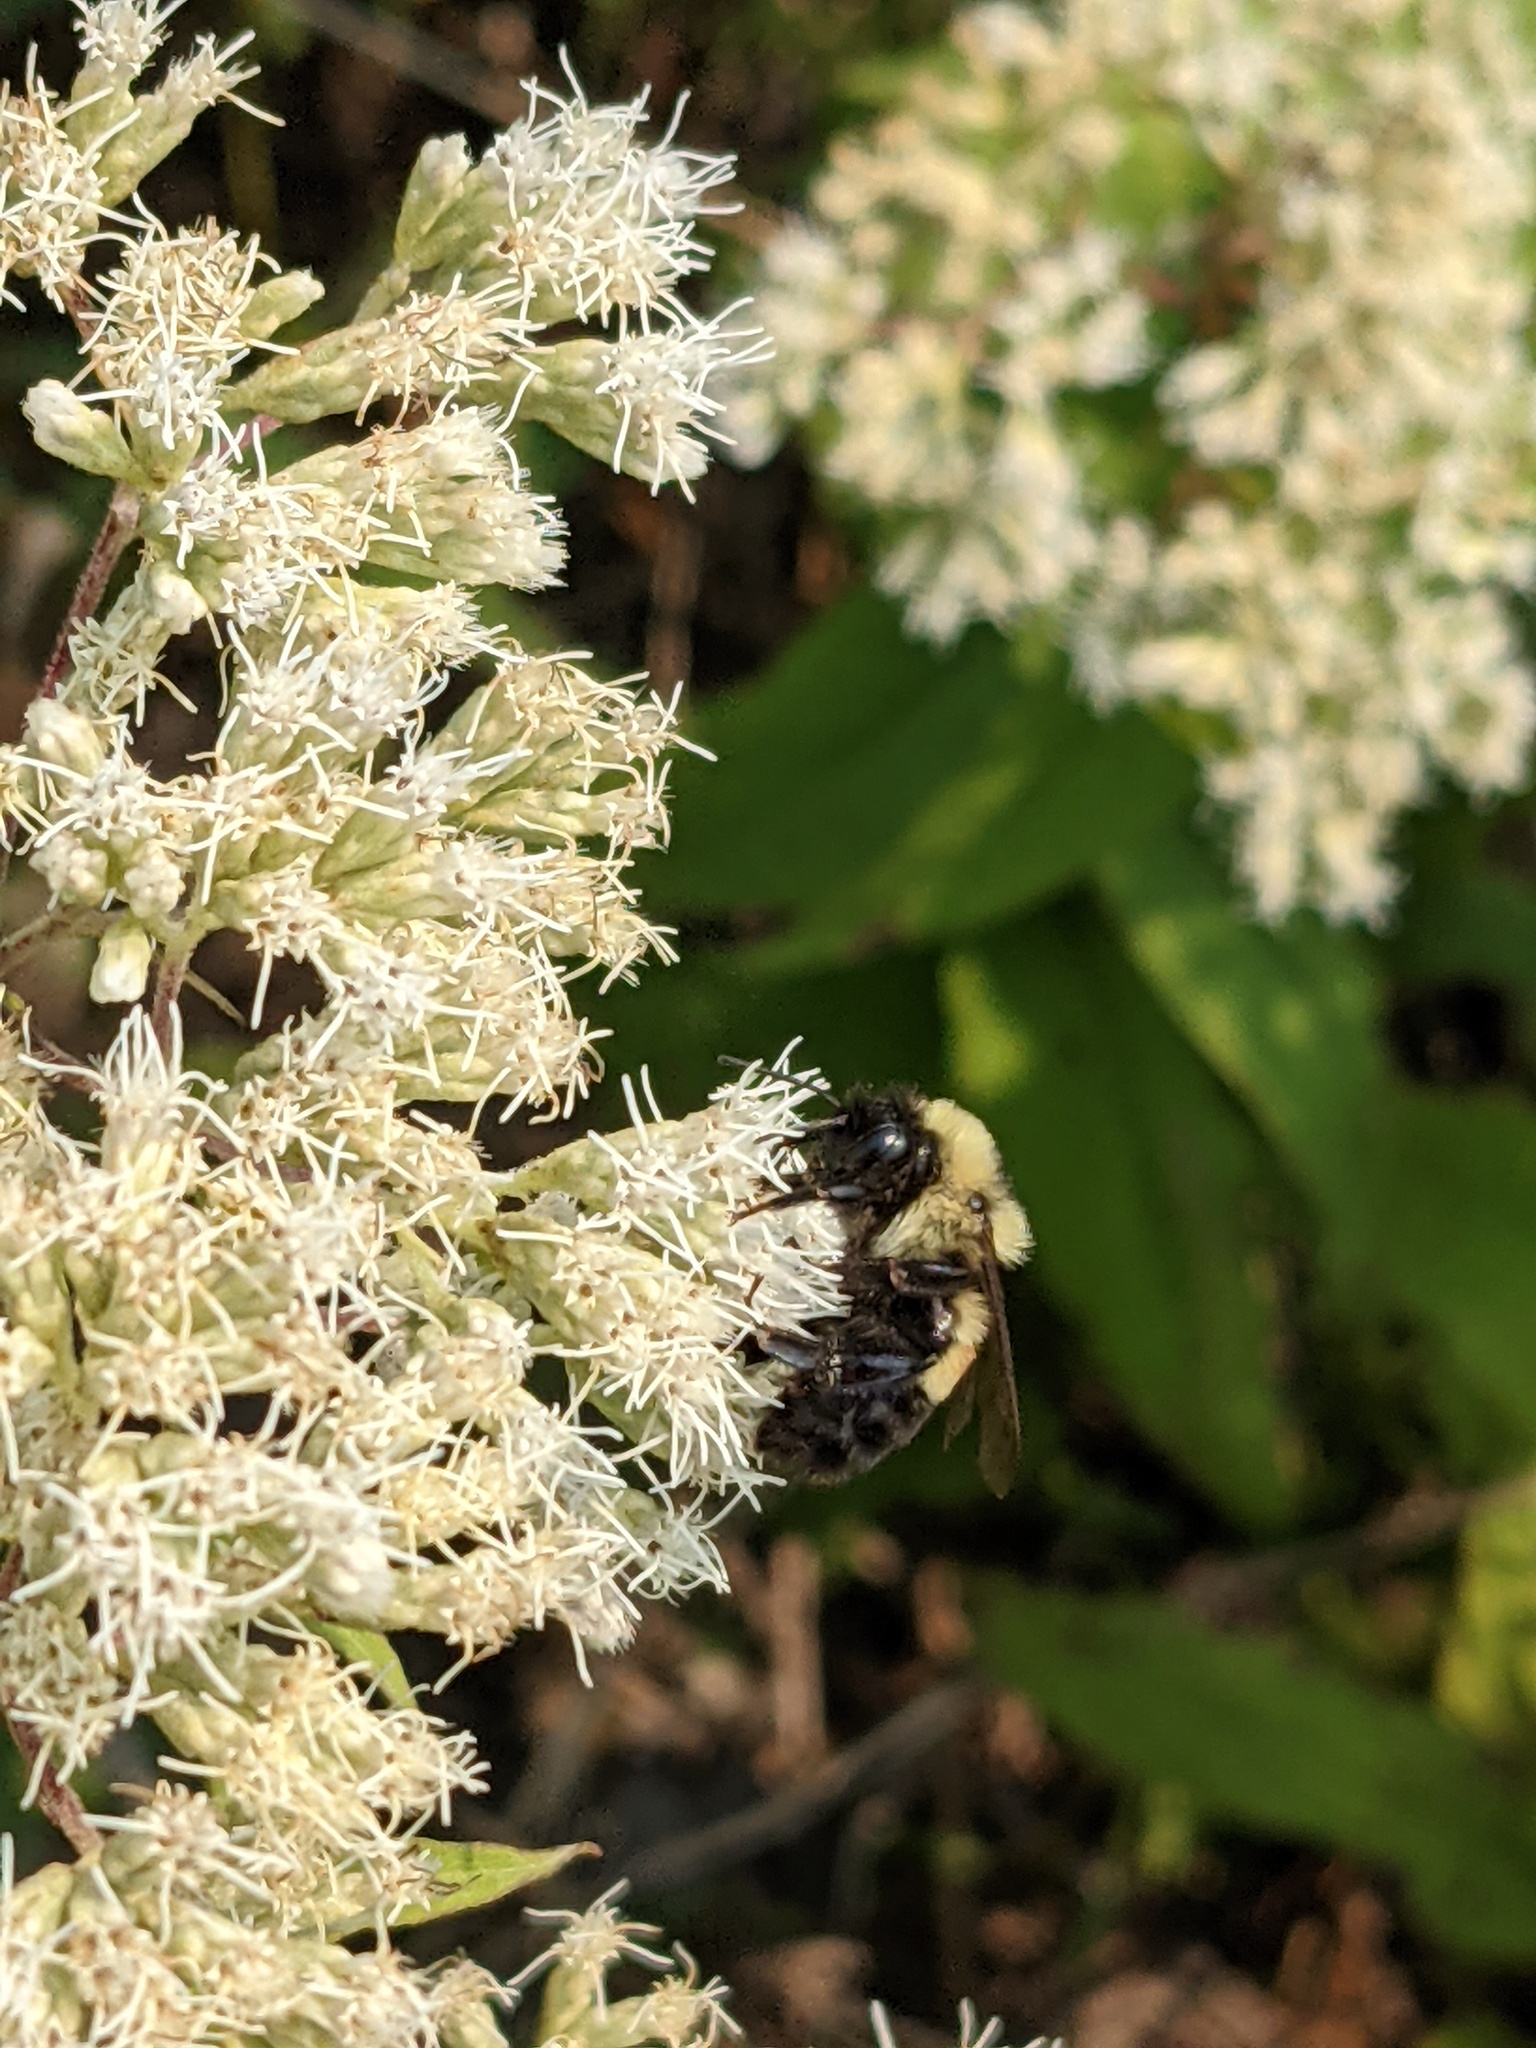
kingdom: Animalia
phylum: Arthropoda
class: Insecta
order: Hymenoptera
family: Apidae
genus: Bombus
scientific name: Bombus affinis
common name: Rusty patched bumble bee
